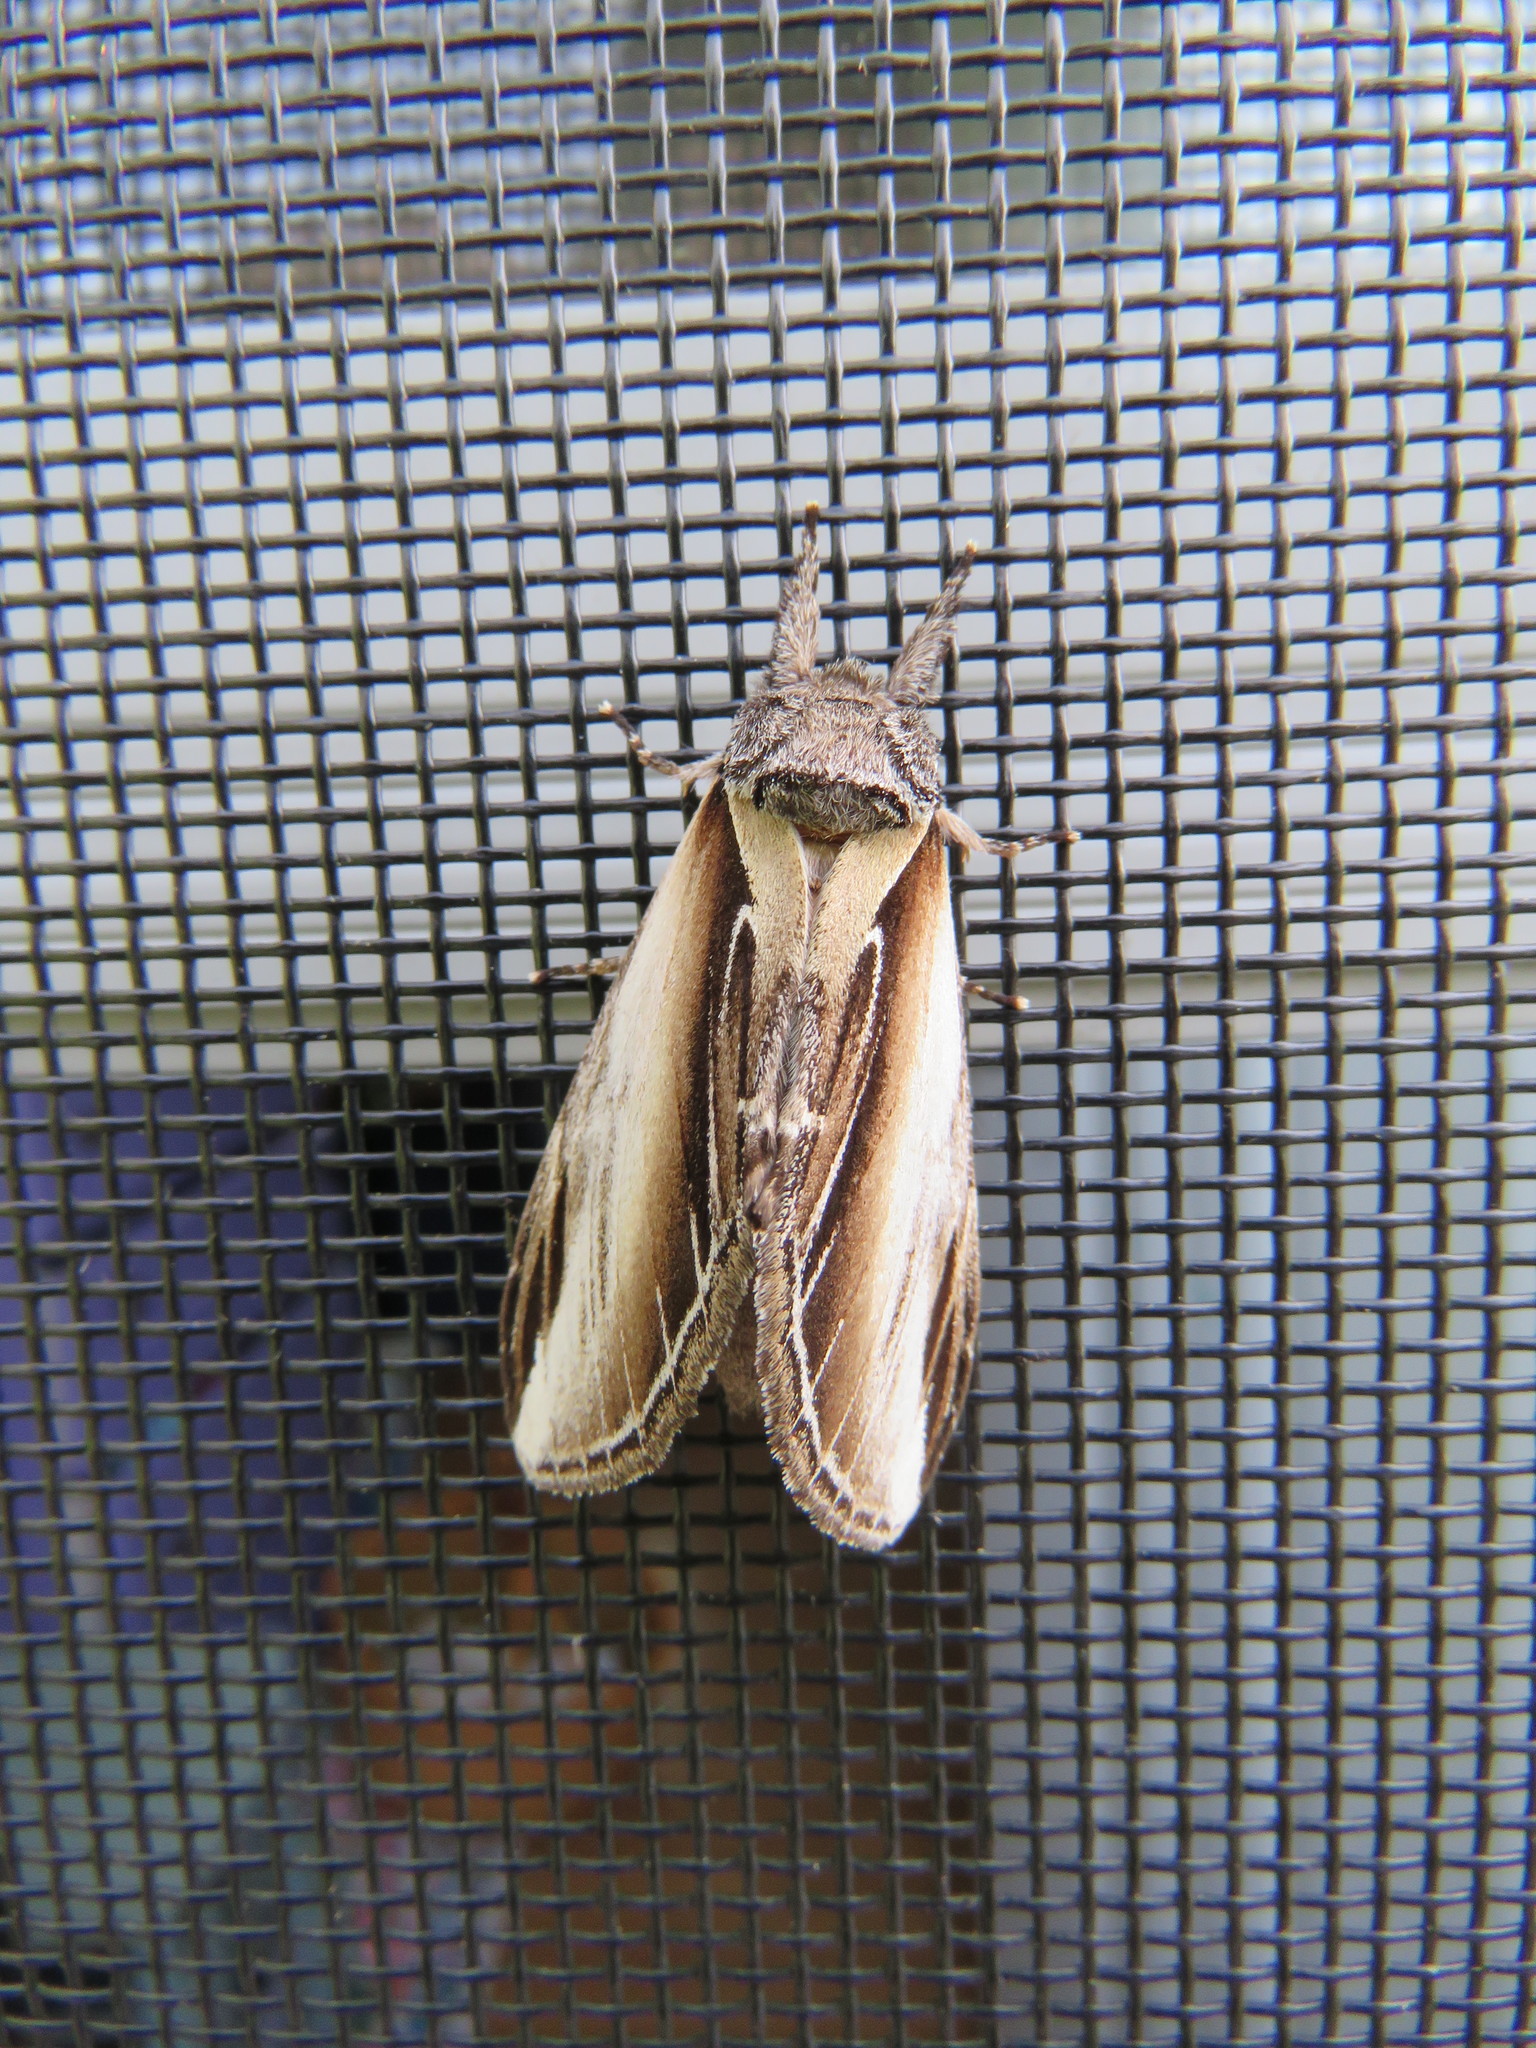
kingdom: Animalia
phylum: Arthropoda
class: Insecta
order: Lepidoptera
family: Notodontidae
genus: Pheosia
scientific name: Pheosia rimosa
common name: Black-rimmed prominent
